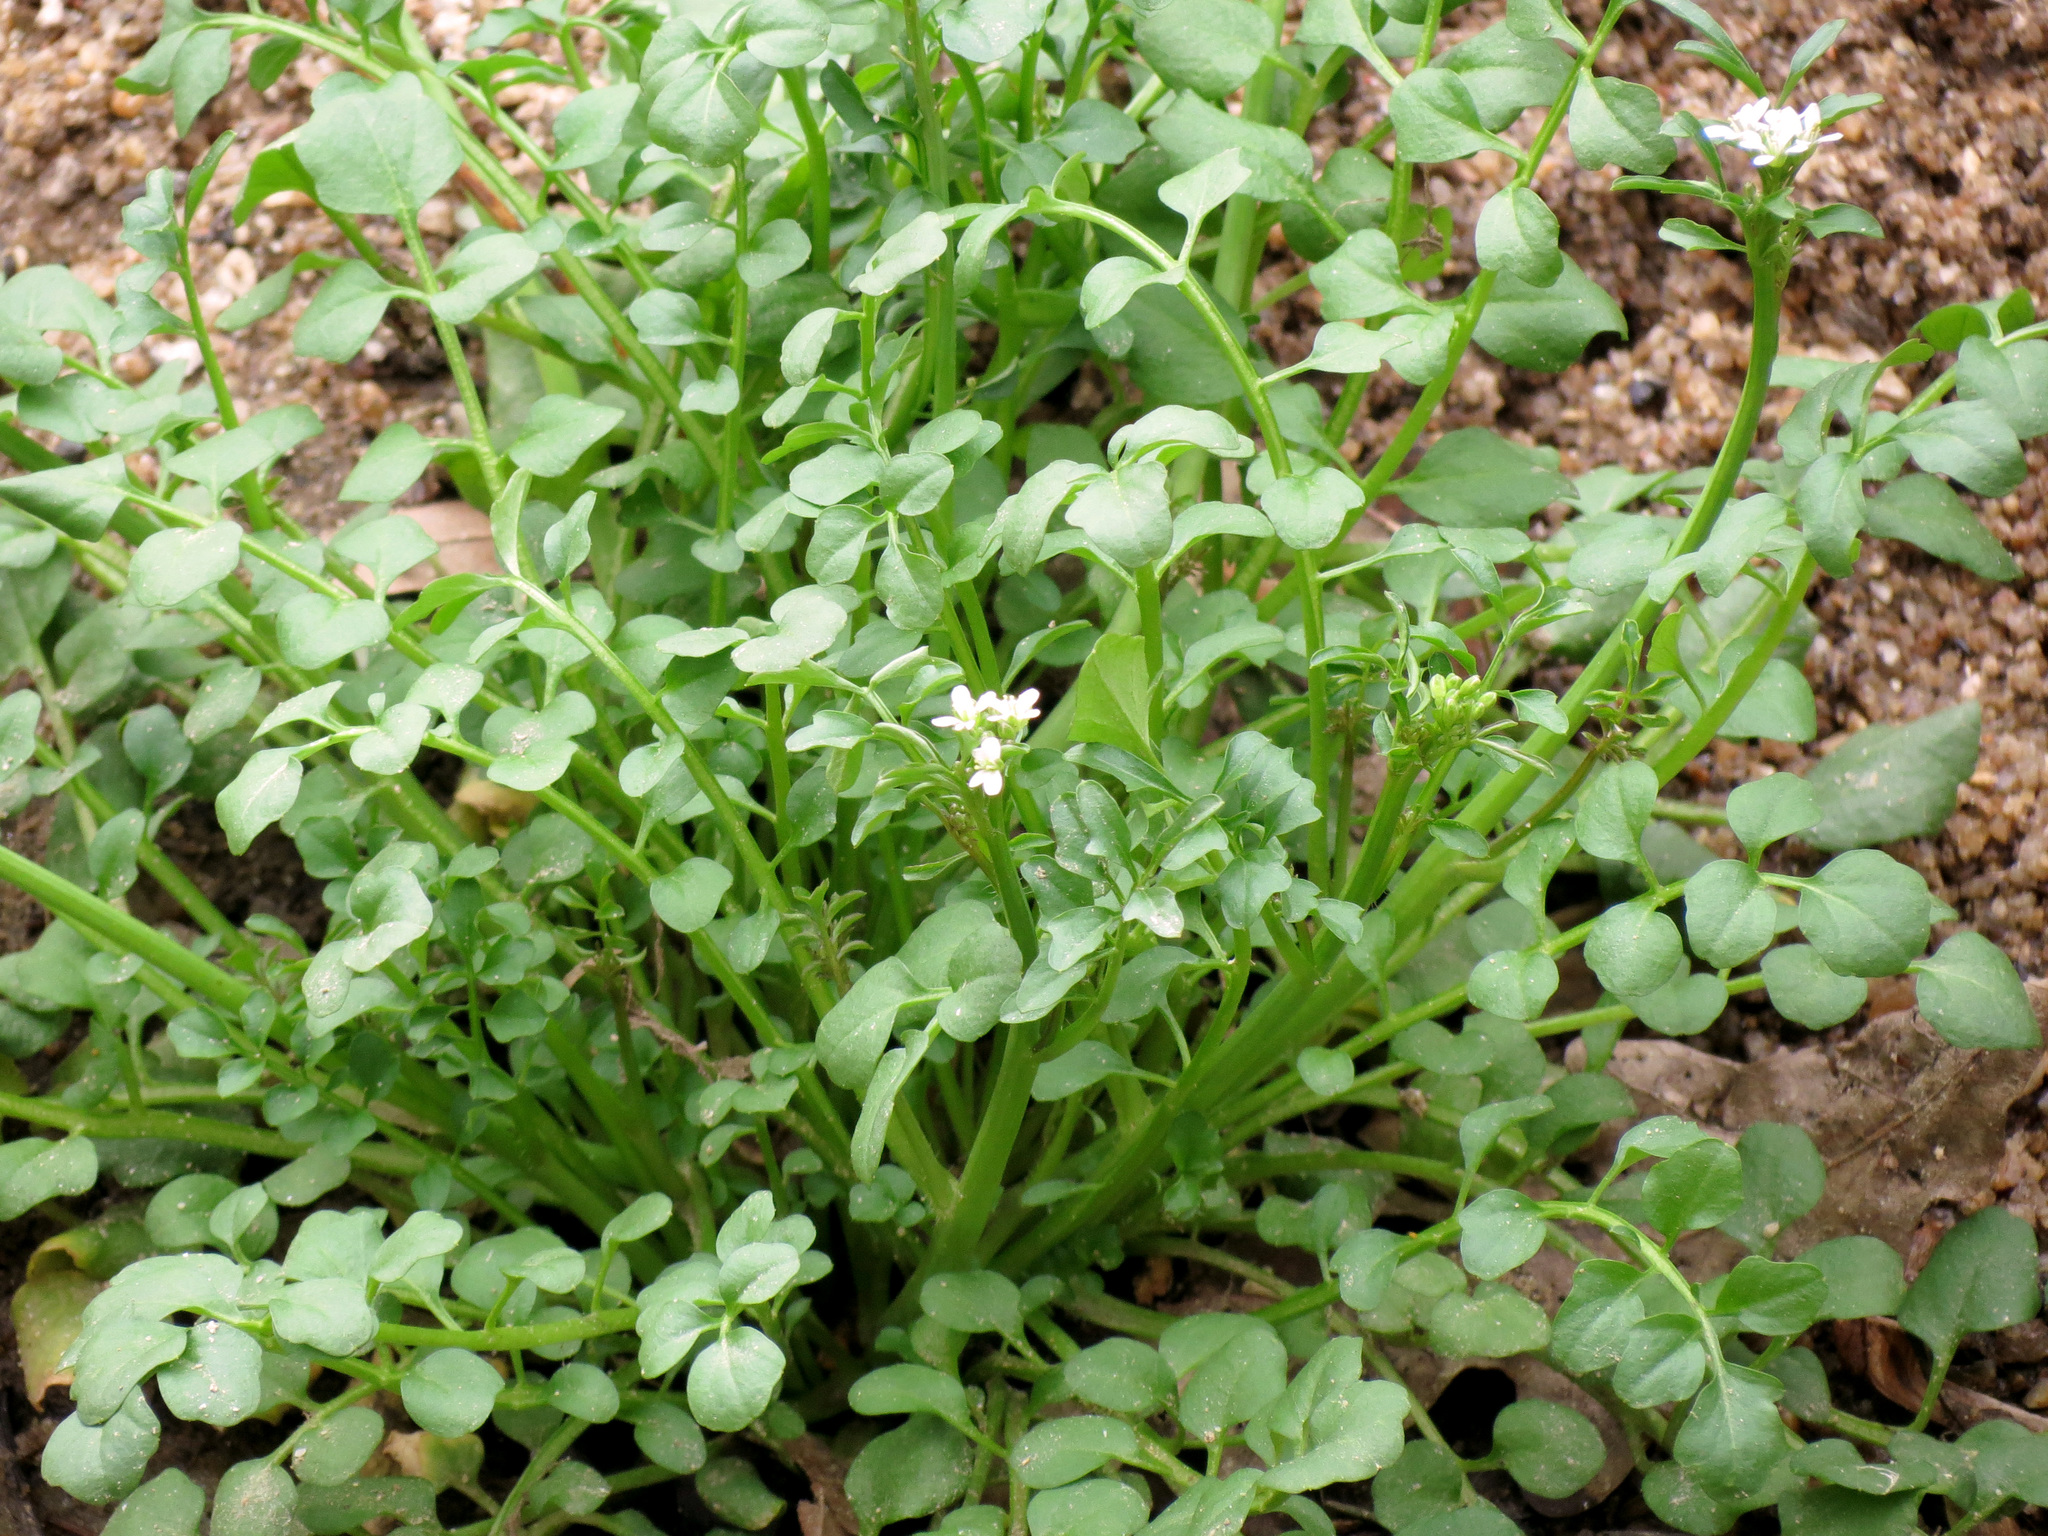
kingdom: Plantae
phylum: Tracheophyta
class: Magnoliopsida
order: Brassicales
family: Brassicaceae
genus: Cardamine
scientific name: Cardamine hirsuta
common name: Hairy bittercress
